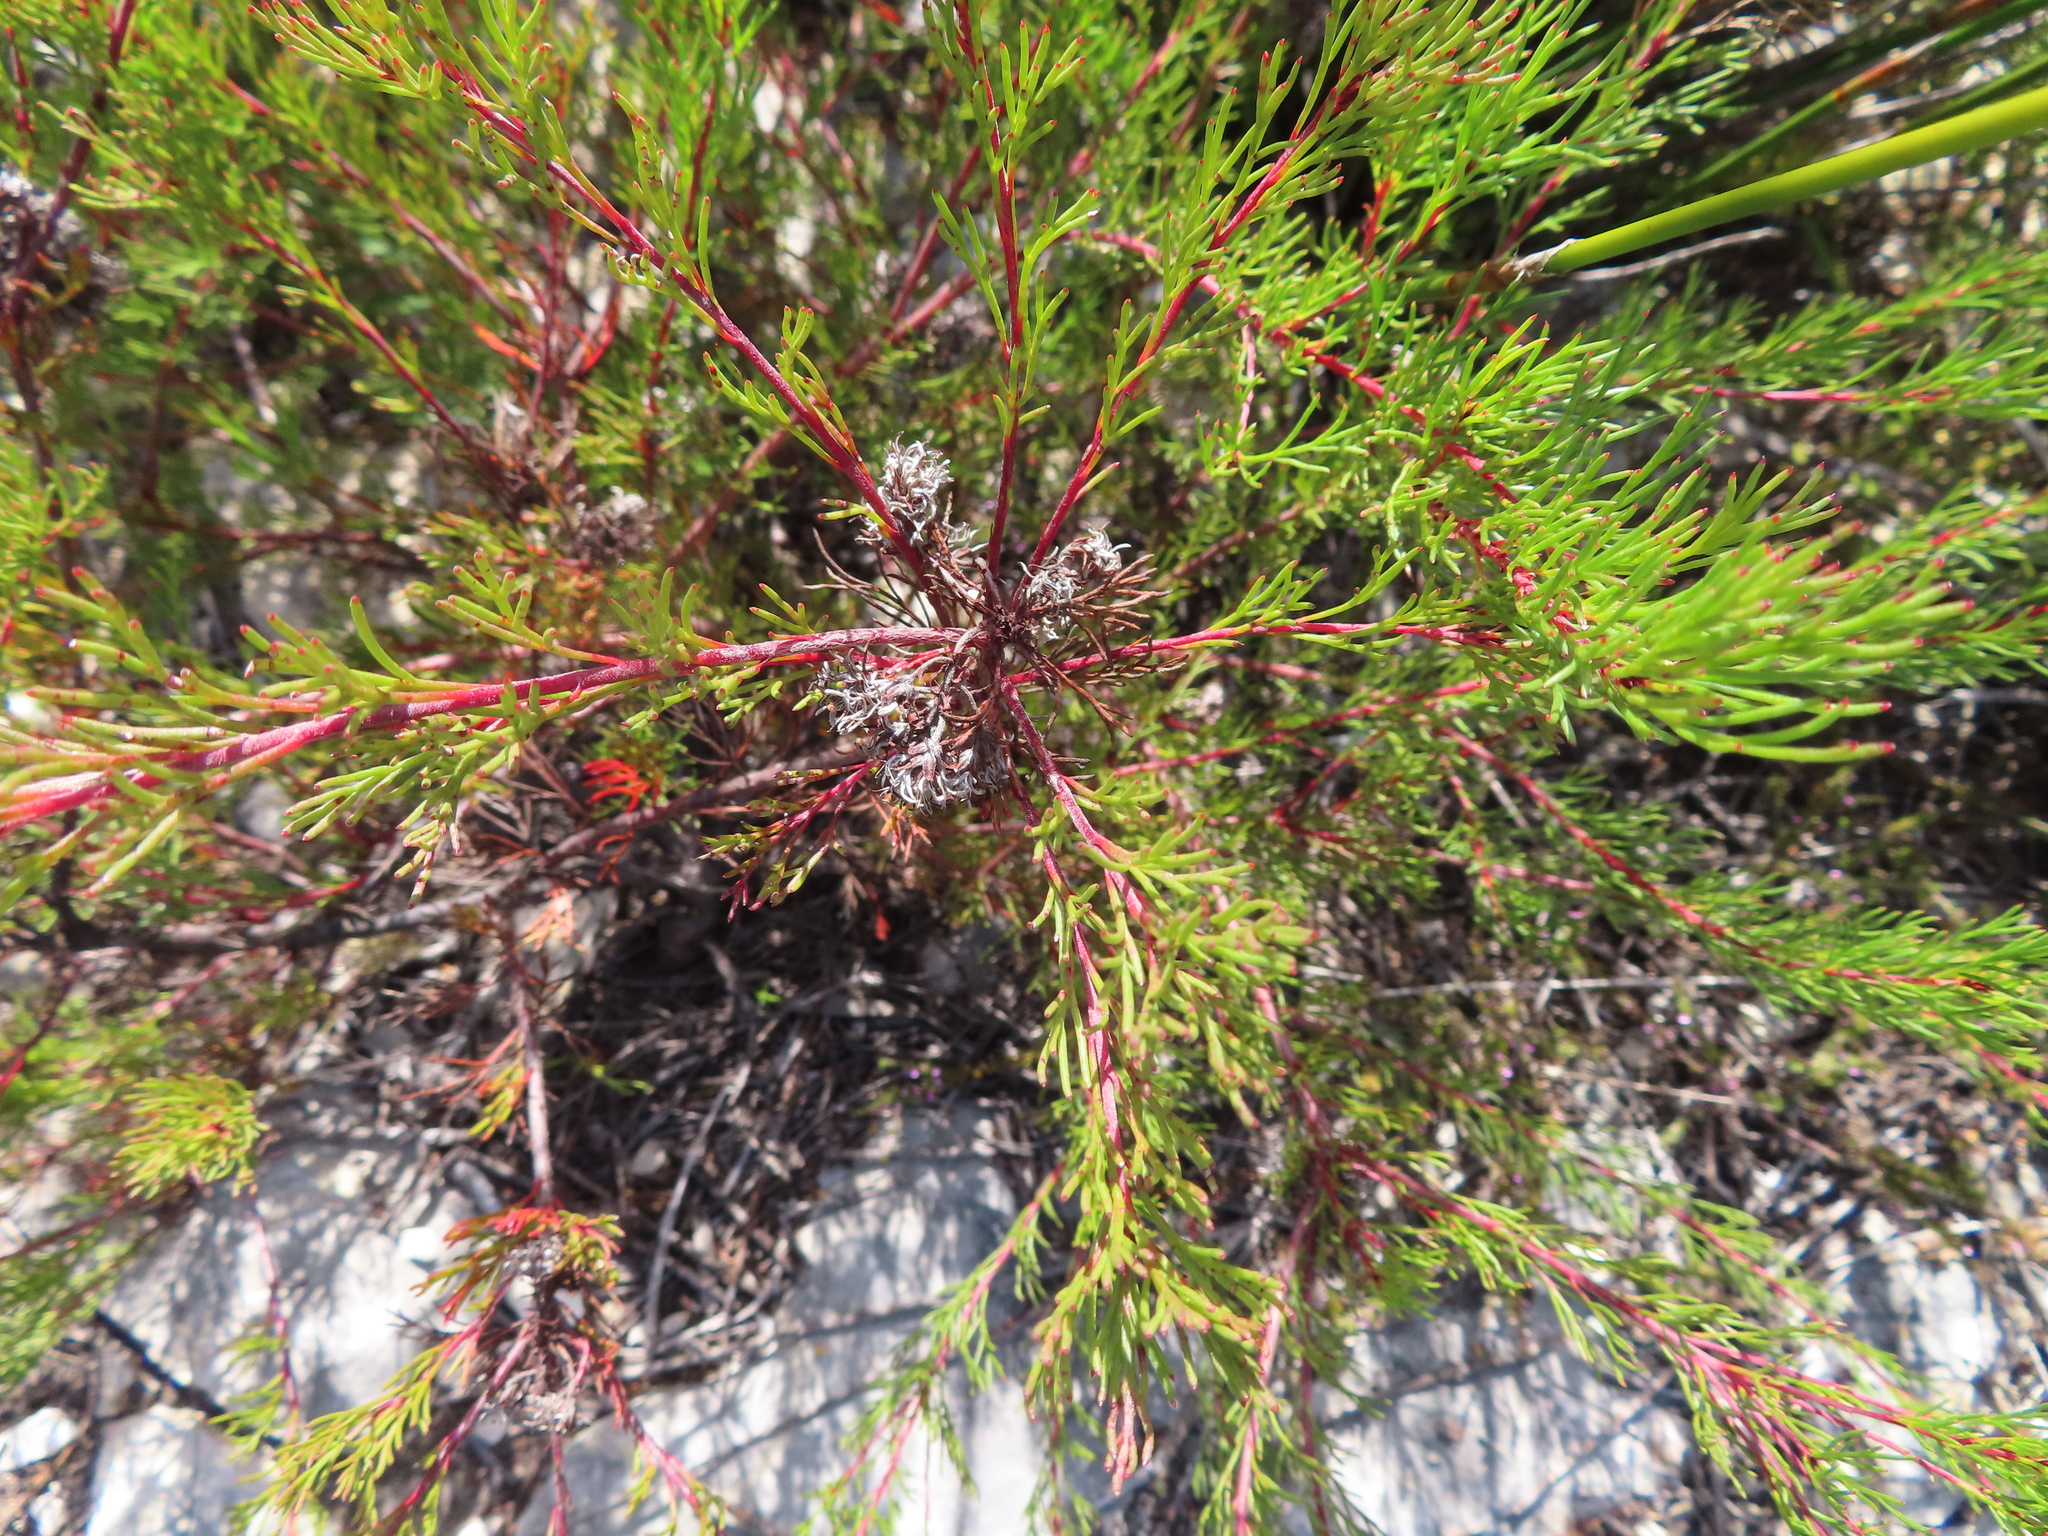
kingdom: Plantae
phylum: Tracheophyta
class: Magnoliopsida
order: Proteales
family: Proteaceae
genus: Serruria
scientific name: Serruria bolusii
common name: Agulhas spiderhead
